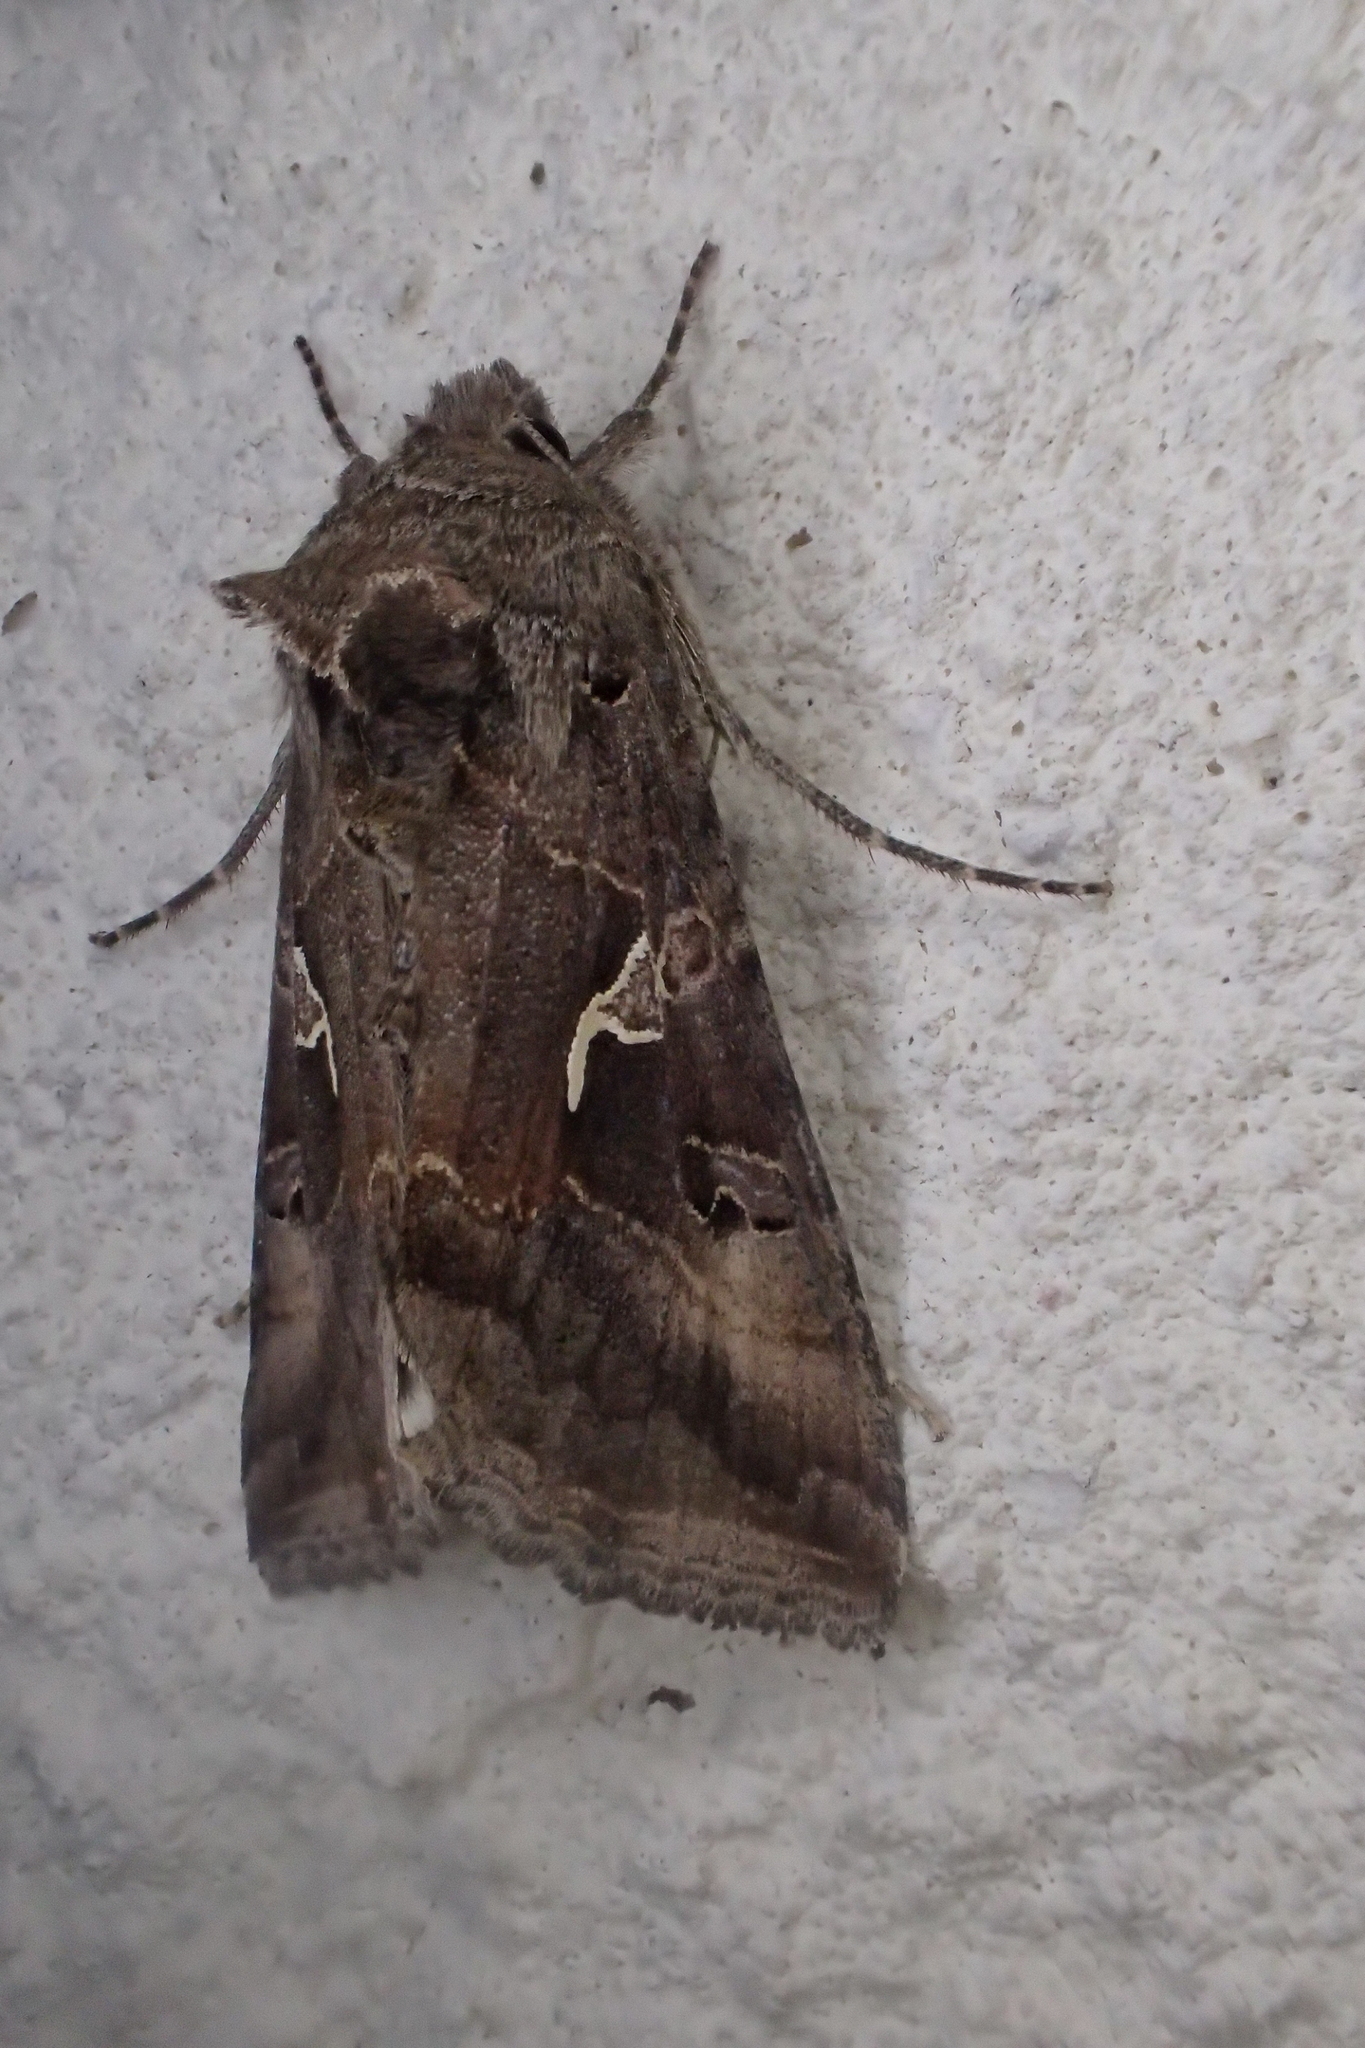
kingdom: Animalia
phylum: Arthropoda
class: Insecta
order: Lepidoptera
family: Noctuidae
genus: Autographa
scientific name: Autographa gamma
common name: Silver y
